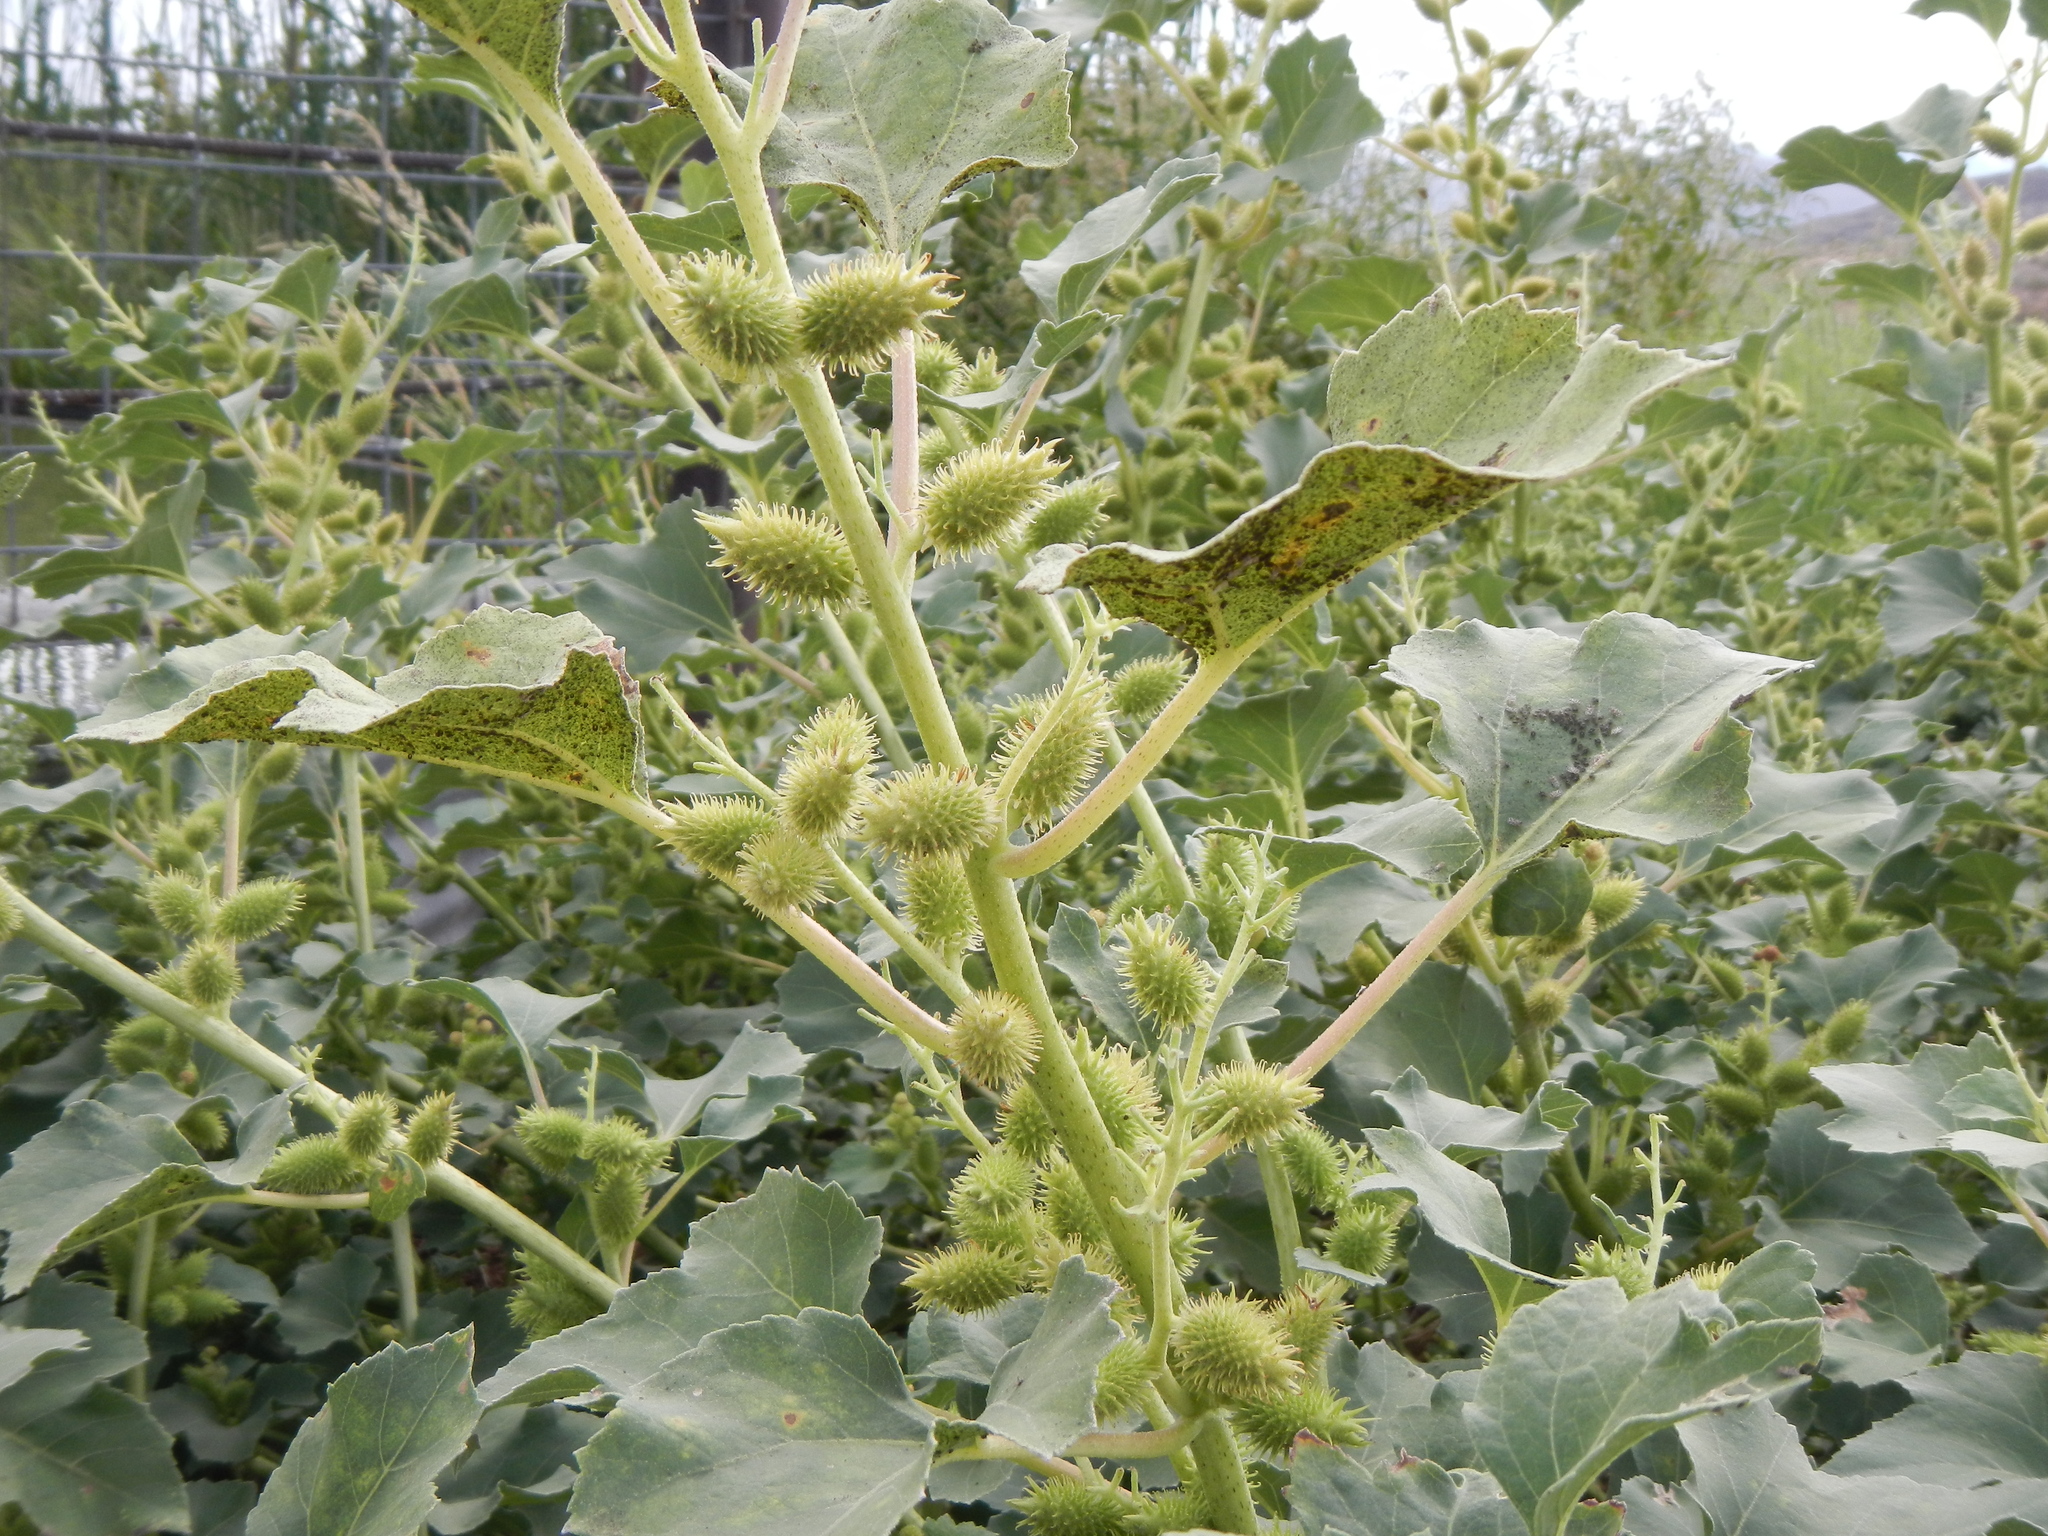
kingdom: Plantae
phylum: Tracheophyta
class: Magnoliopsida
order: Asterales
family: Asteraceae
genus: Xanthium
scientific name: Xanthium strumarium
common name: Rough cocklebur
